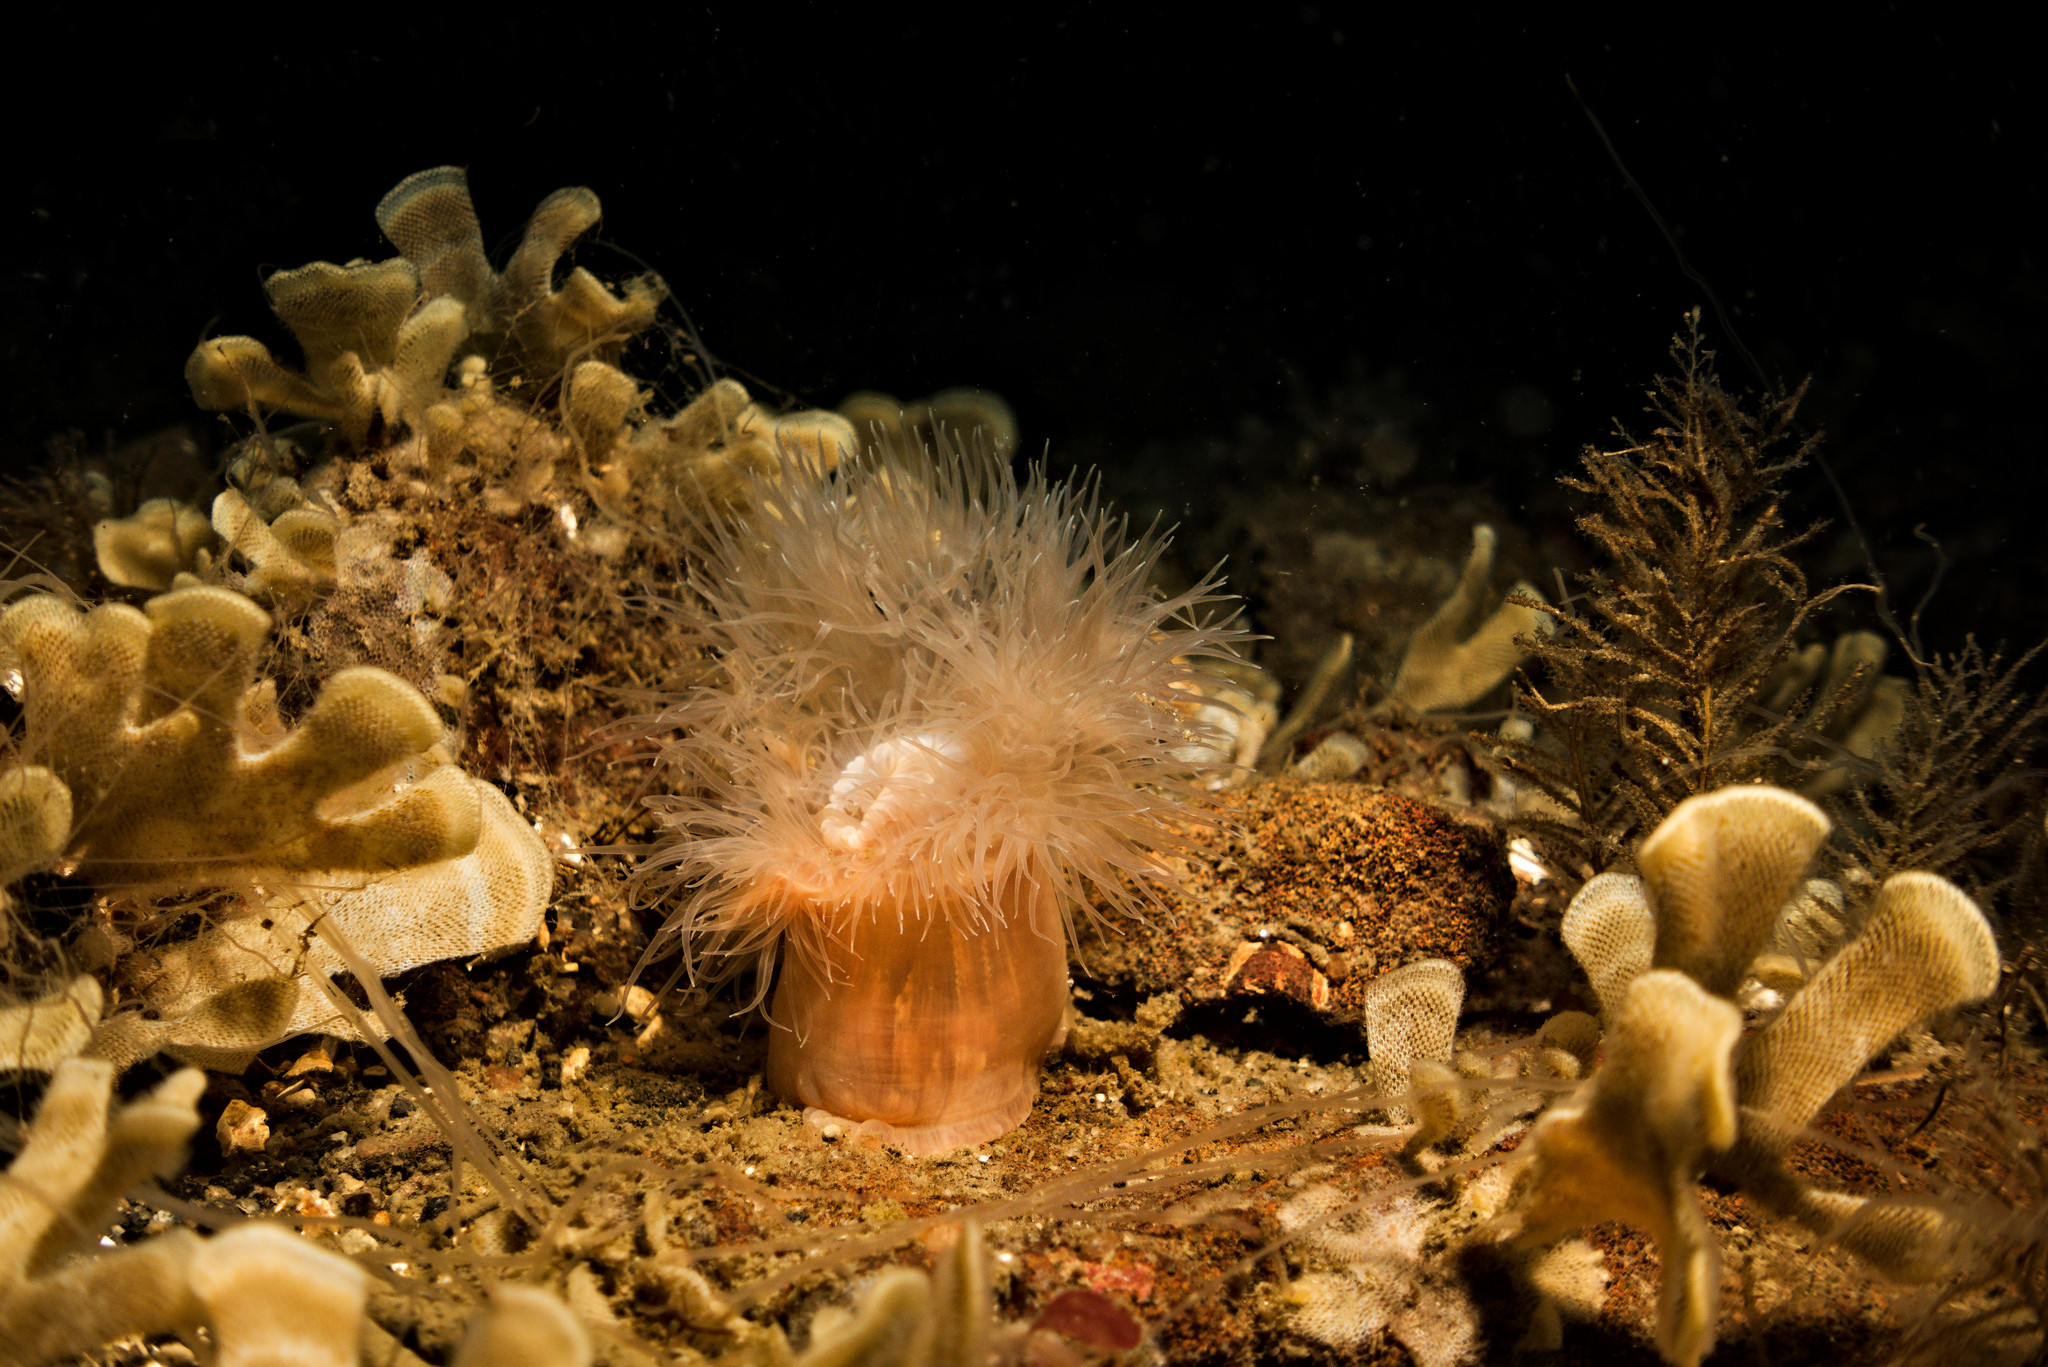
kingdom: Animalia
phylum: Cnidaria
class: Anthozoa
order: Actiniaria
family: Metridiidae
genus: Metridium
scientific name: Metridium senile
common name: Clonal plumose anemone
